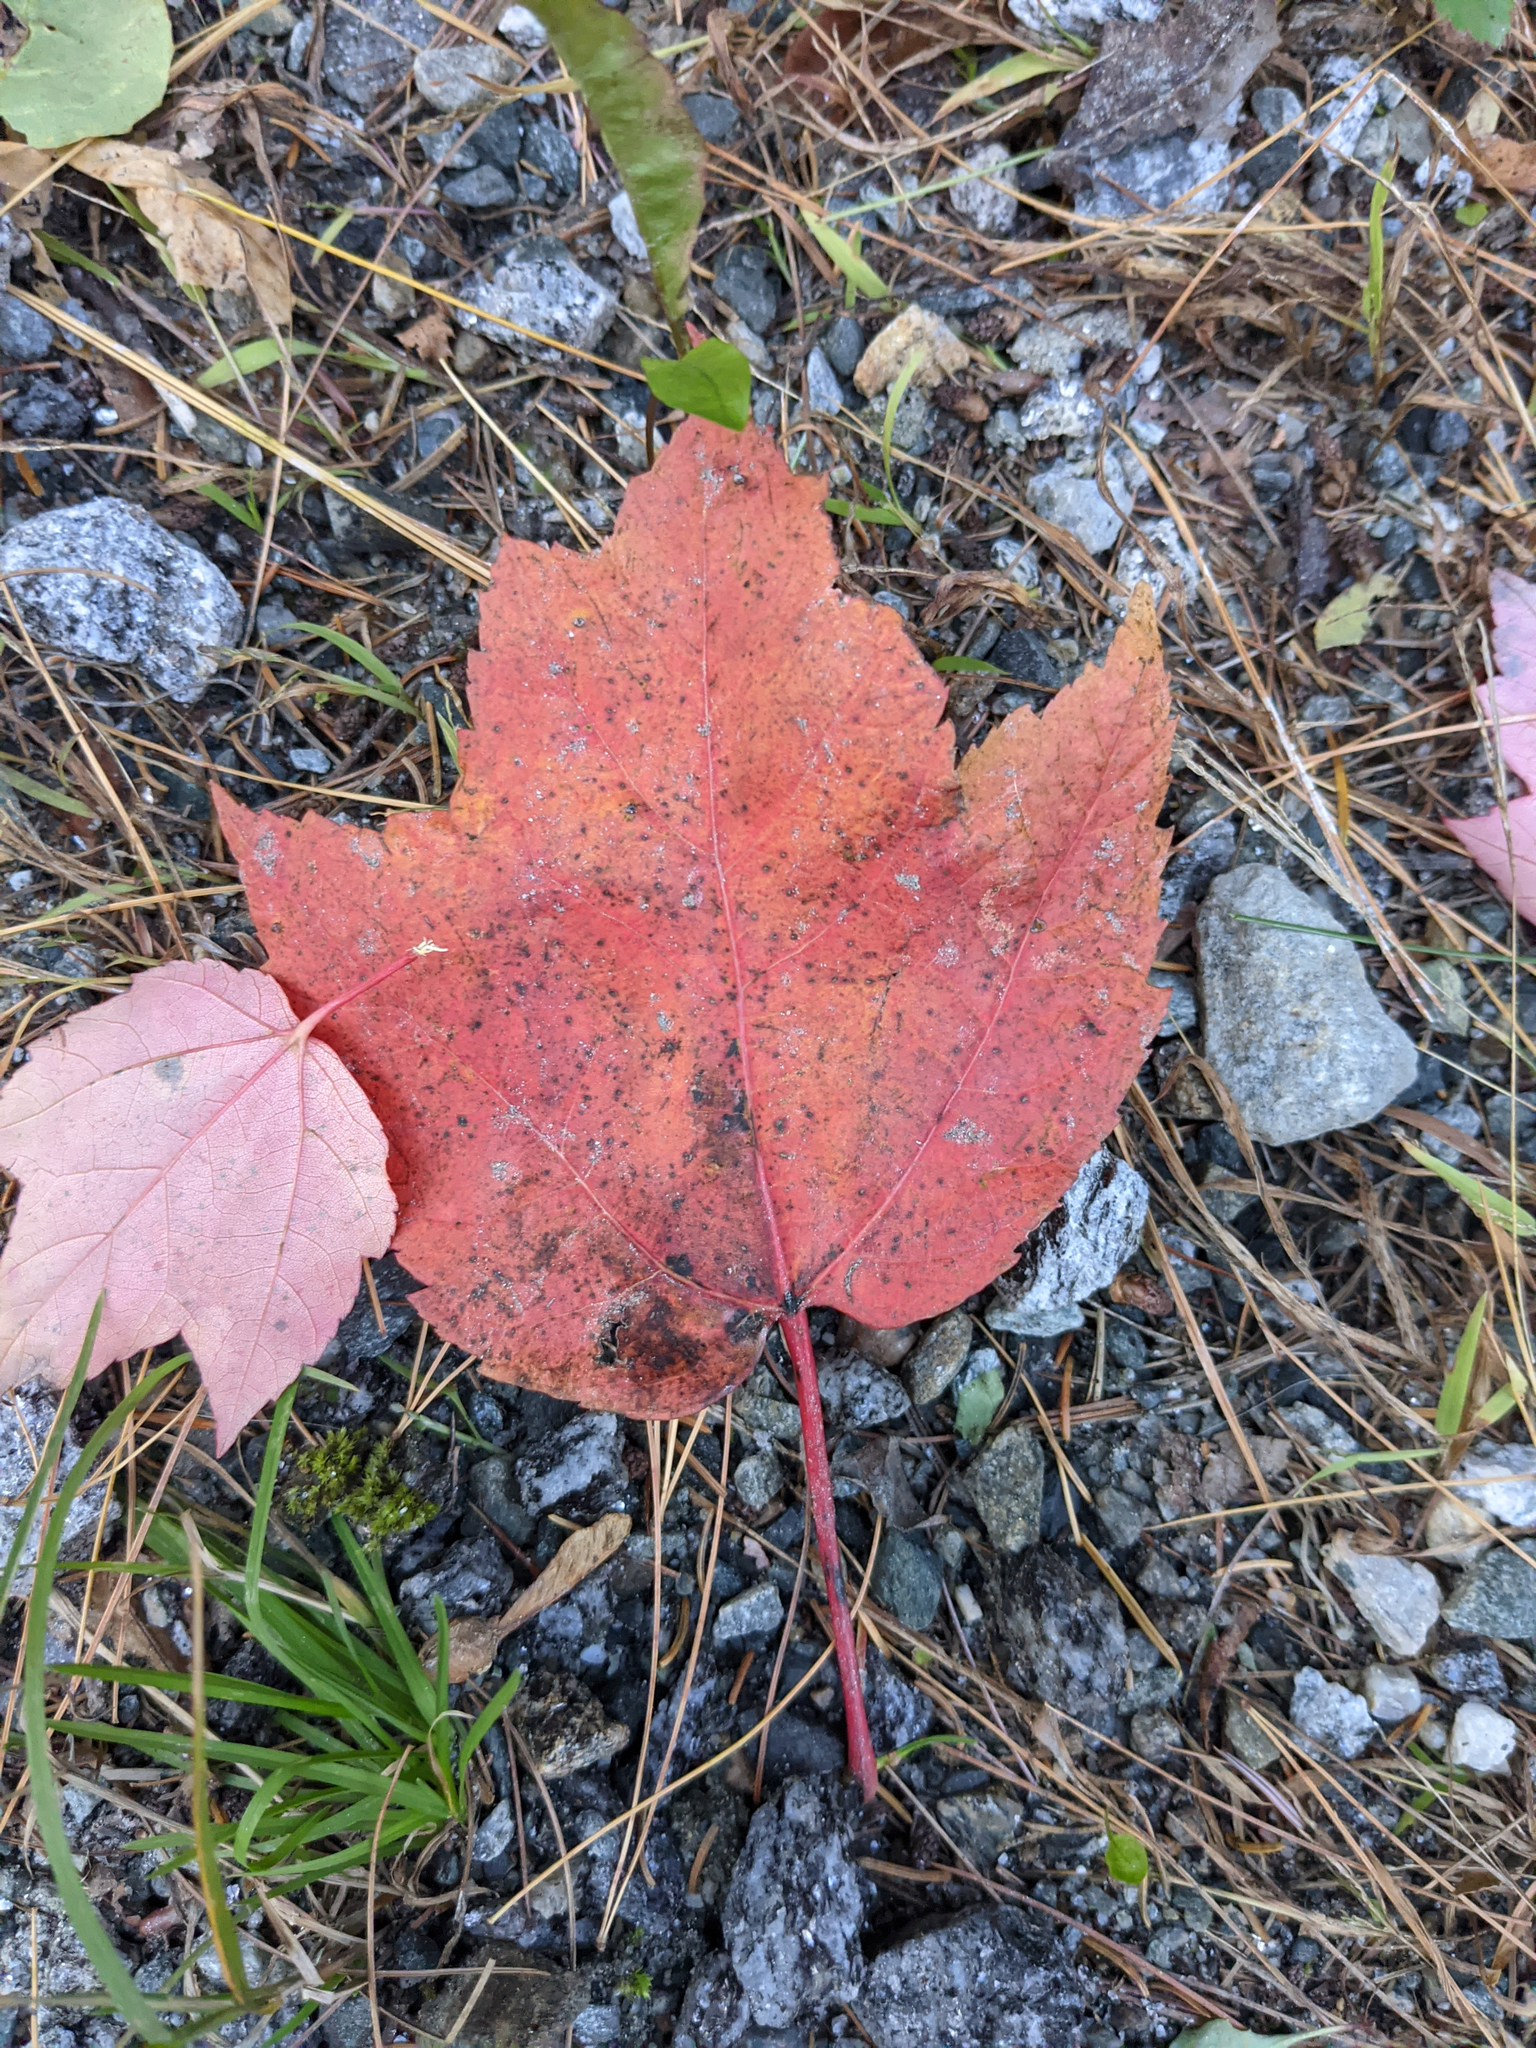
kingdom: Plantae
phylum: Tracheophyta
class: Magnoliopsida
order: Sapindales
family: Sapindaceae
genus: Acer
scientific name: Acer rubrum
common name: Red maple
